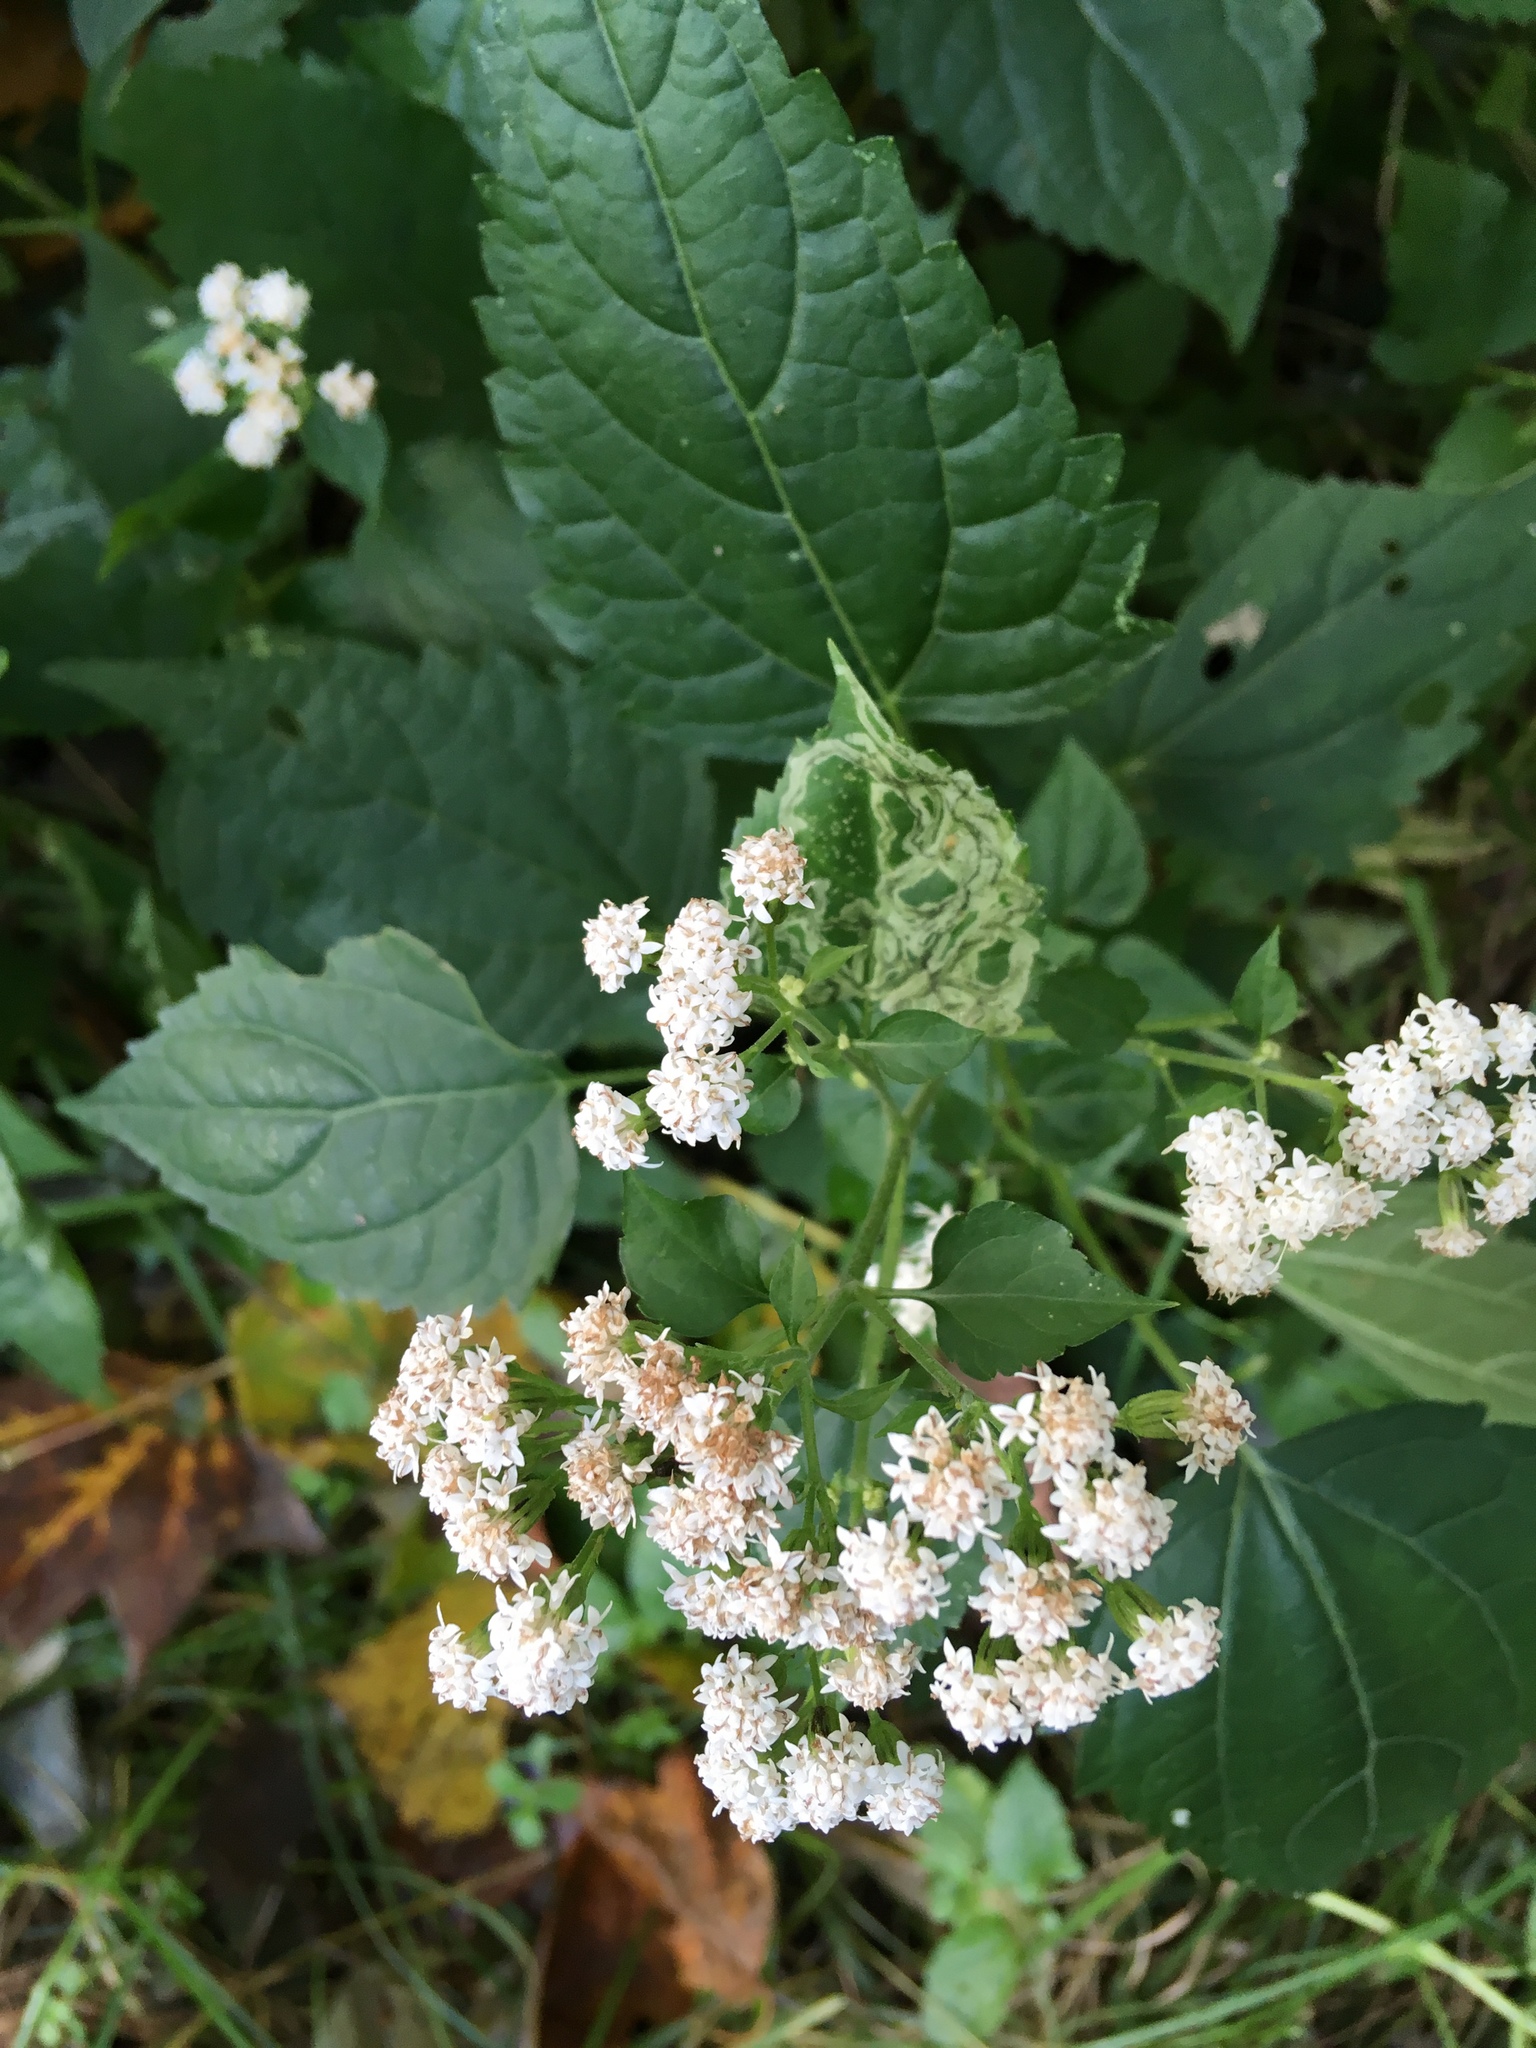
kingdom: Plantae
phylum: Tracheophyta
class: Magnoliopsida
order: Asterales
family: Asteraceae
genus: Ageratina
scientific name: Ageratina altissima
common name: White snakeroot
